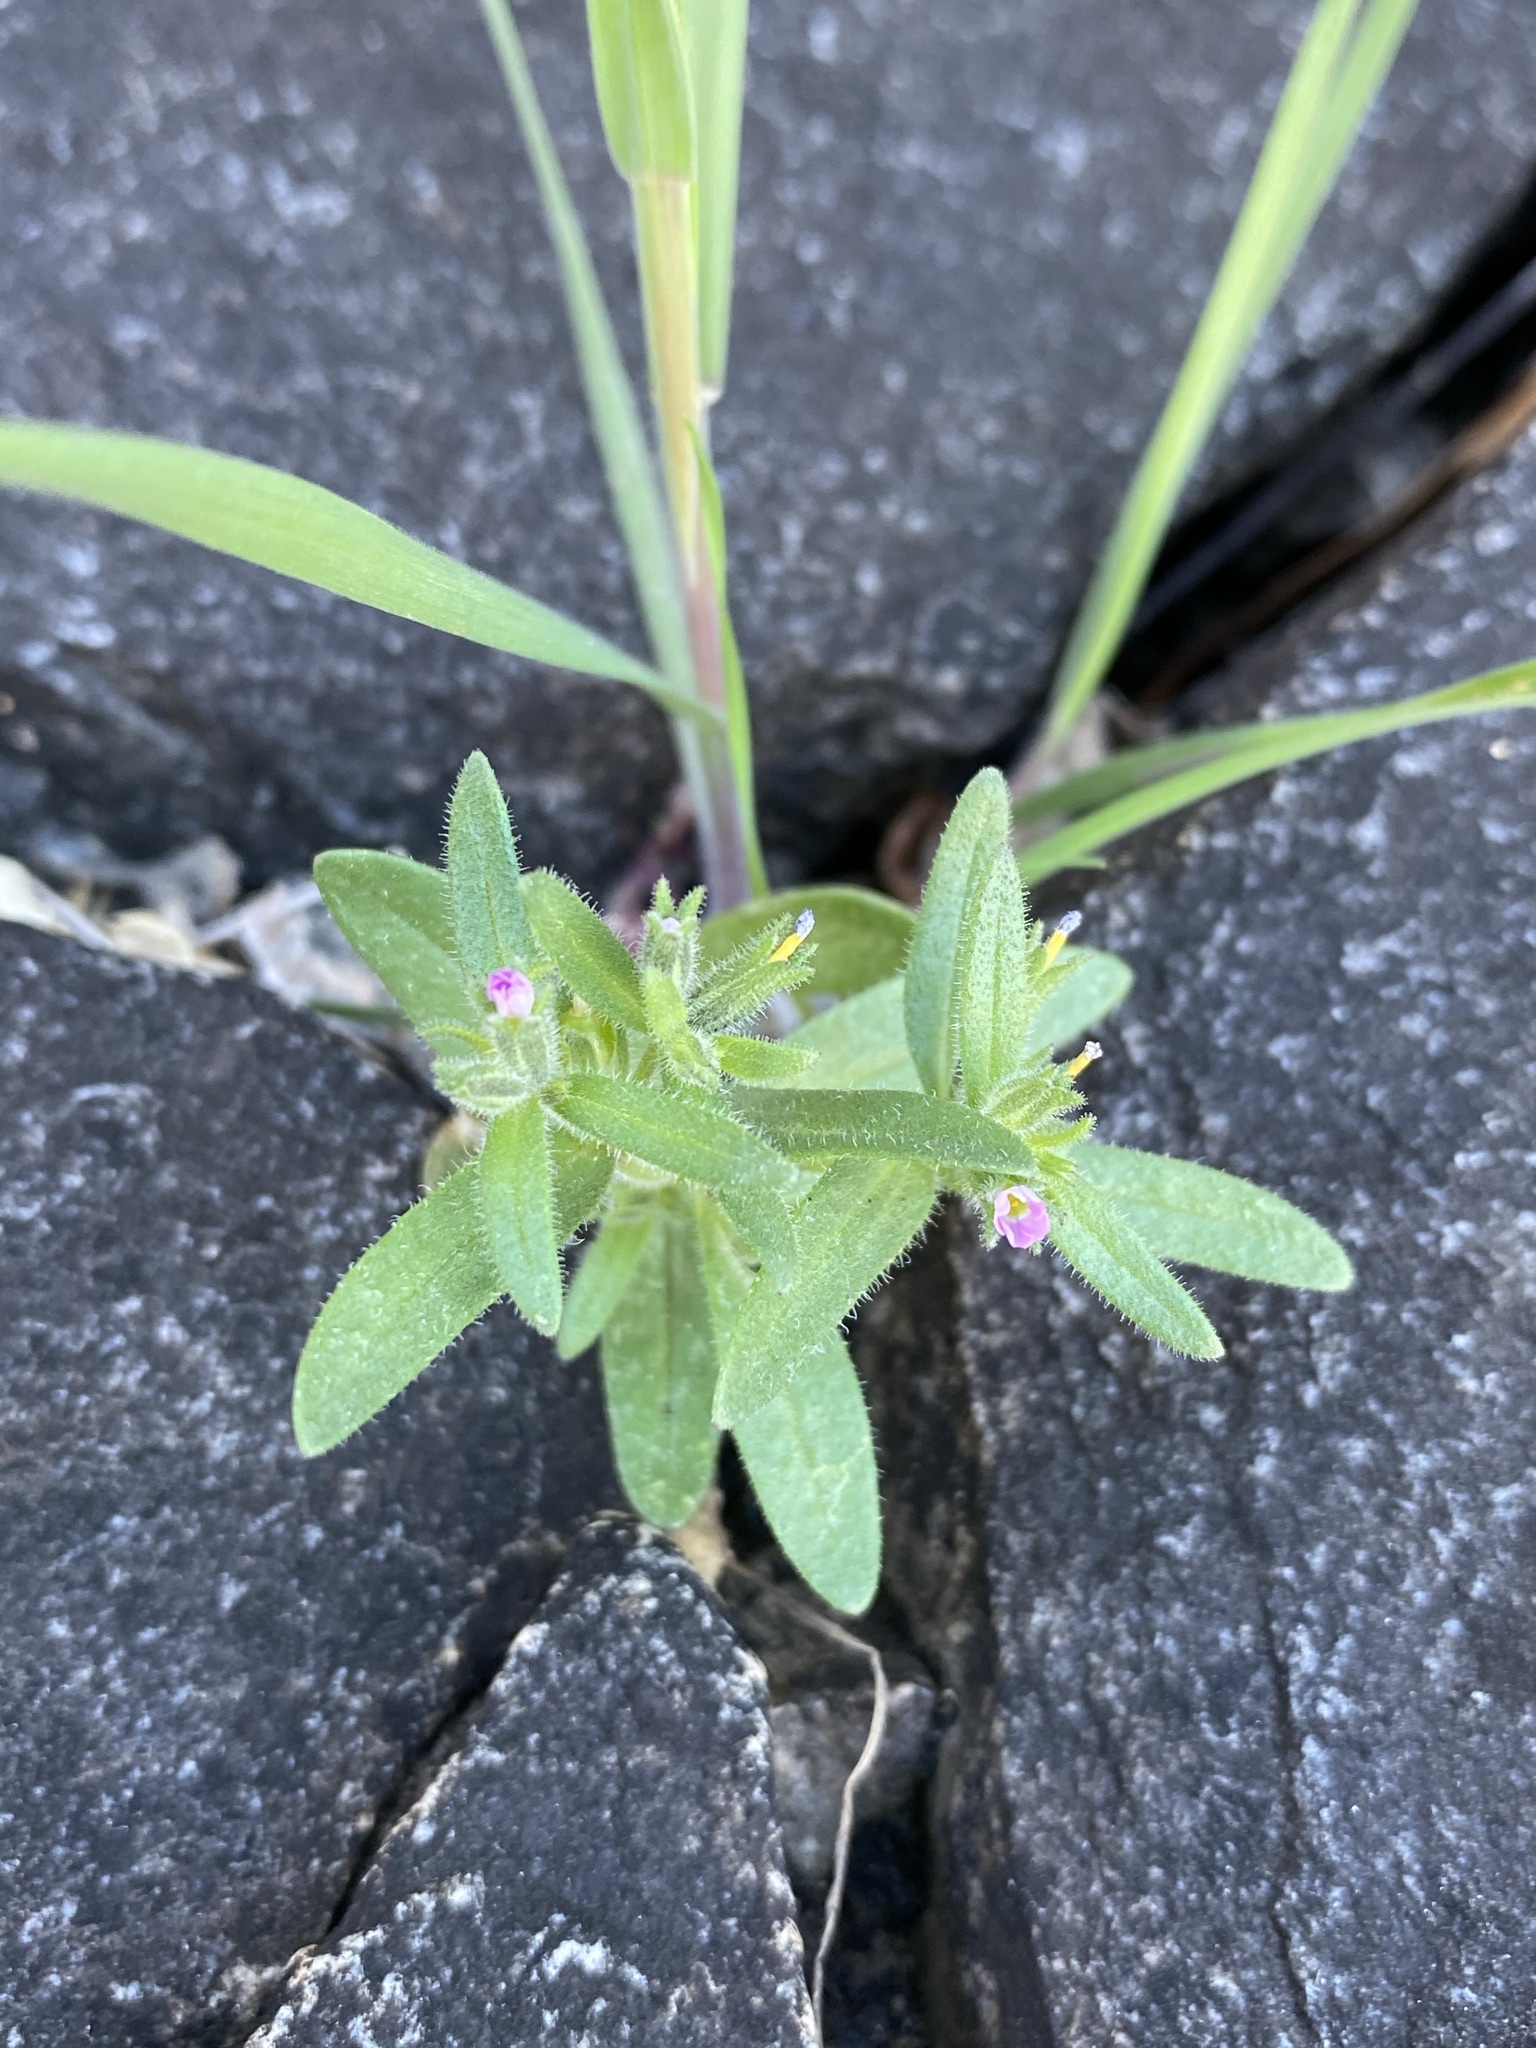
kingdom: Plantae
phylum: Tracheophyta
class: Magnoliopsida
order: Ericales
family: Polemoniaceae
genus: Phlox
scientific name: Phlox gracilis
